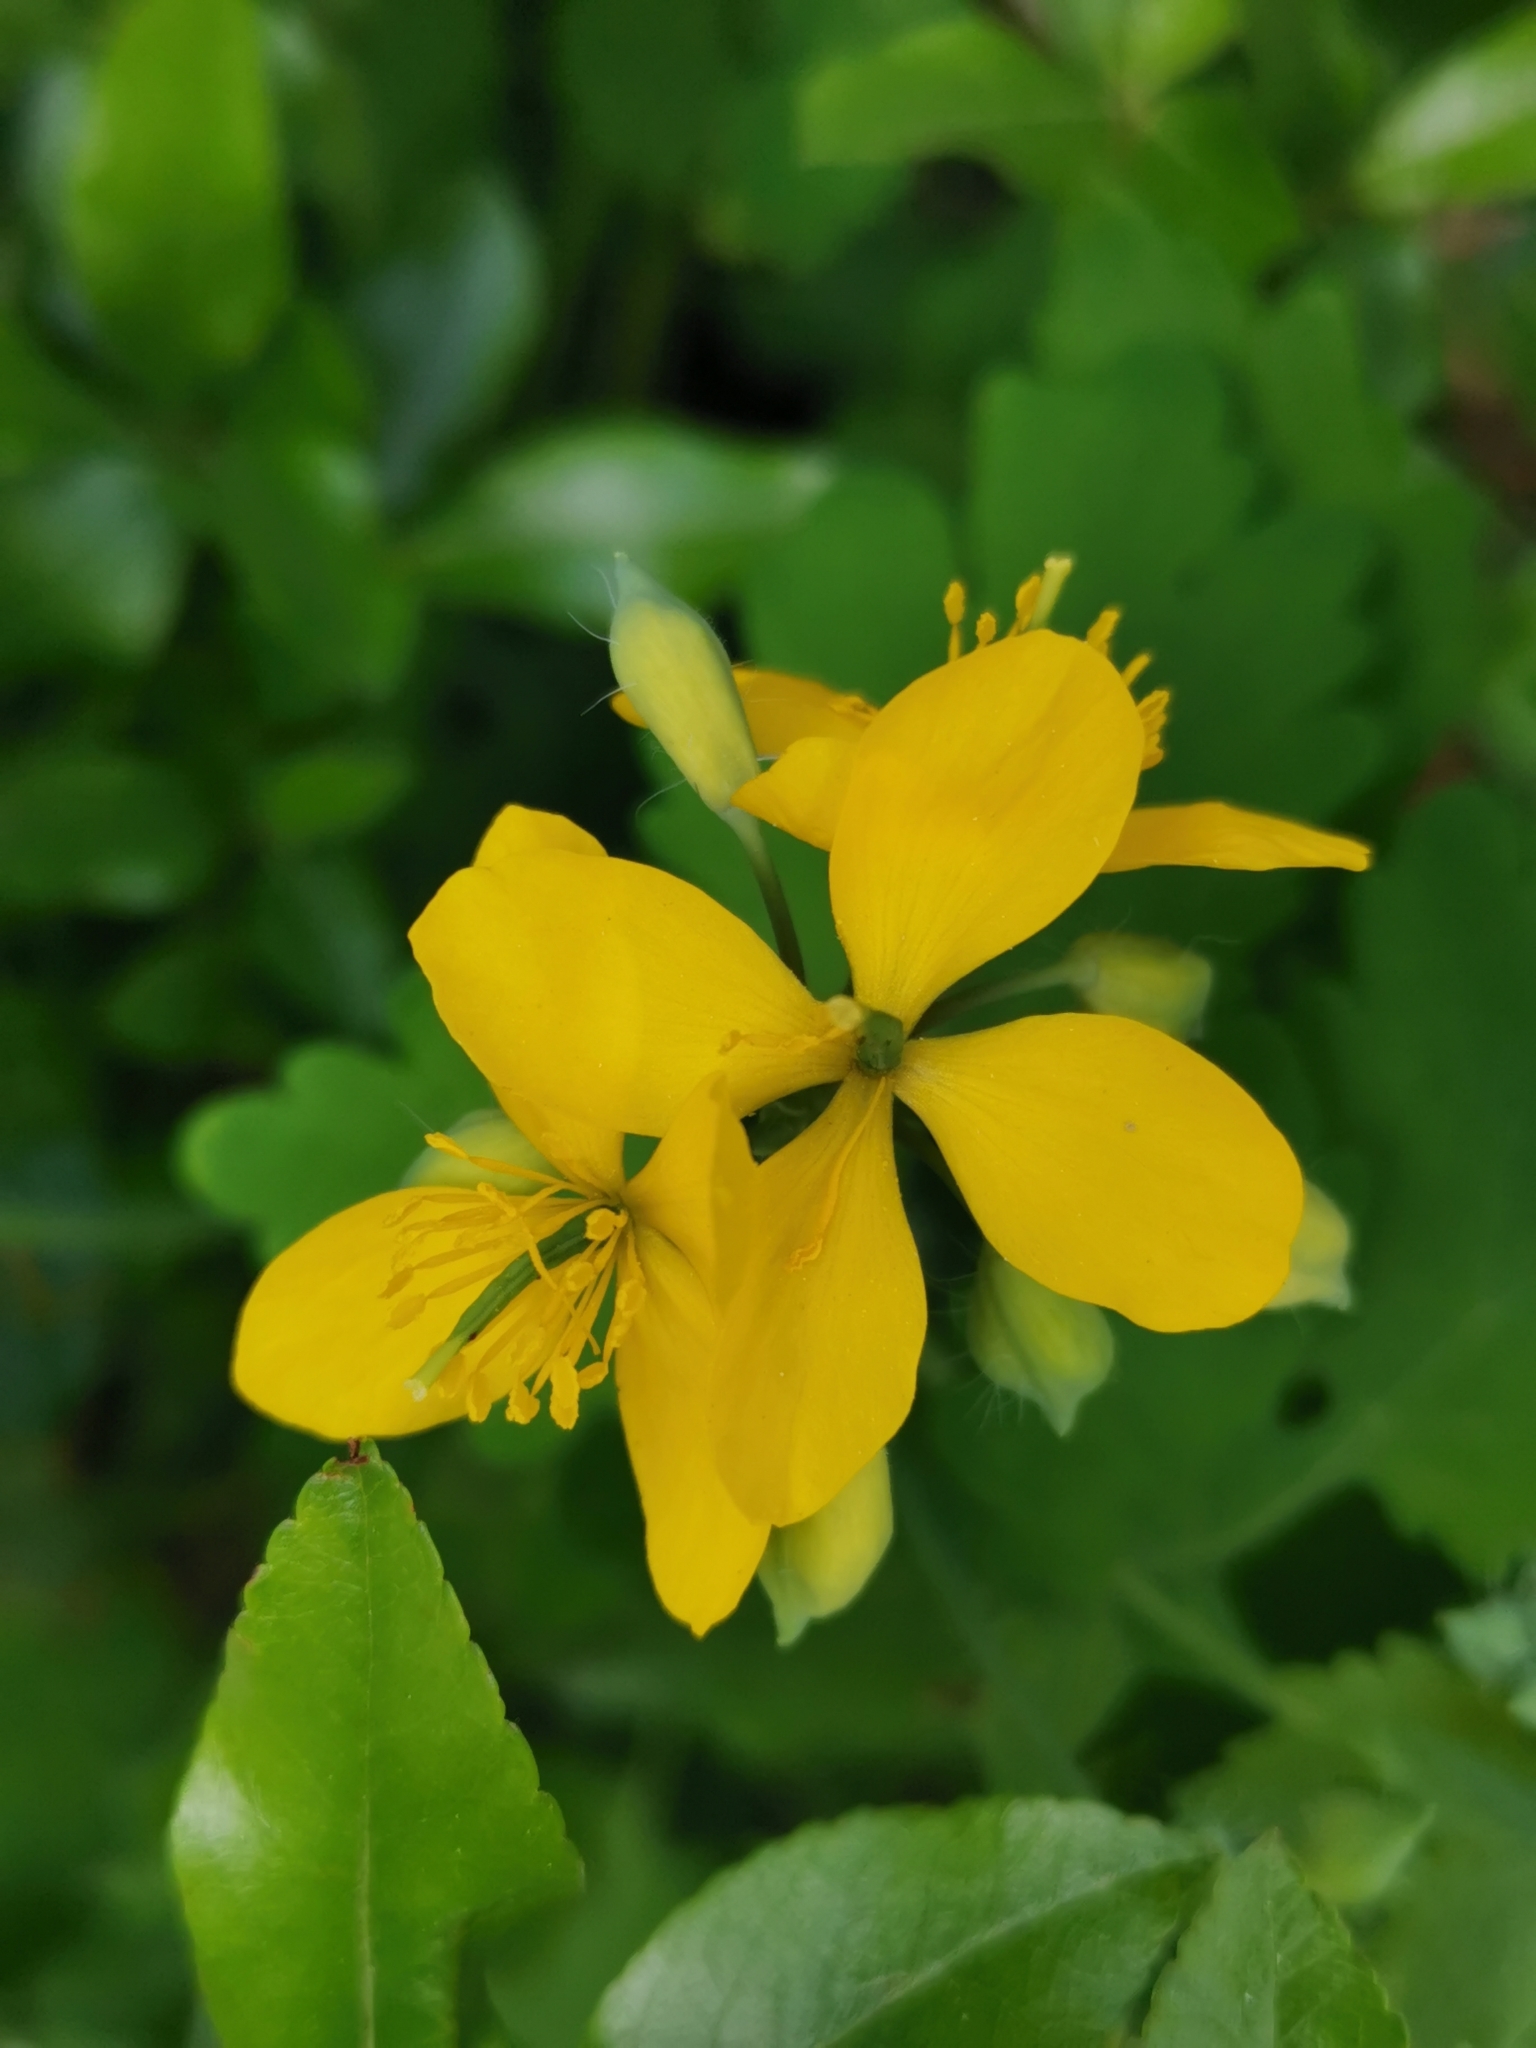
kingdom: Plantae
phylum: Tracheophyta
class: Magnoliopsida
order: Ranunculales
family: Papaveraceae
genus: Chelidonium
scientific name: Chelidonium majus
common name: Greater celandine
